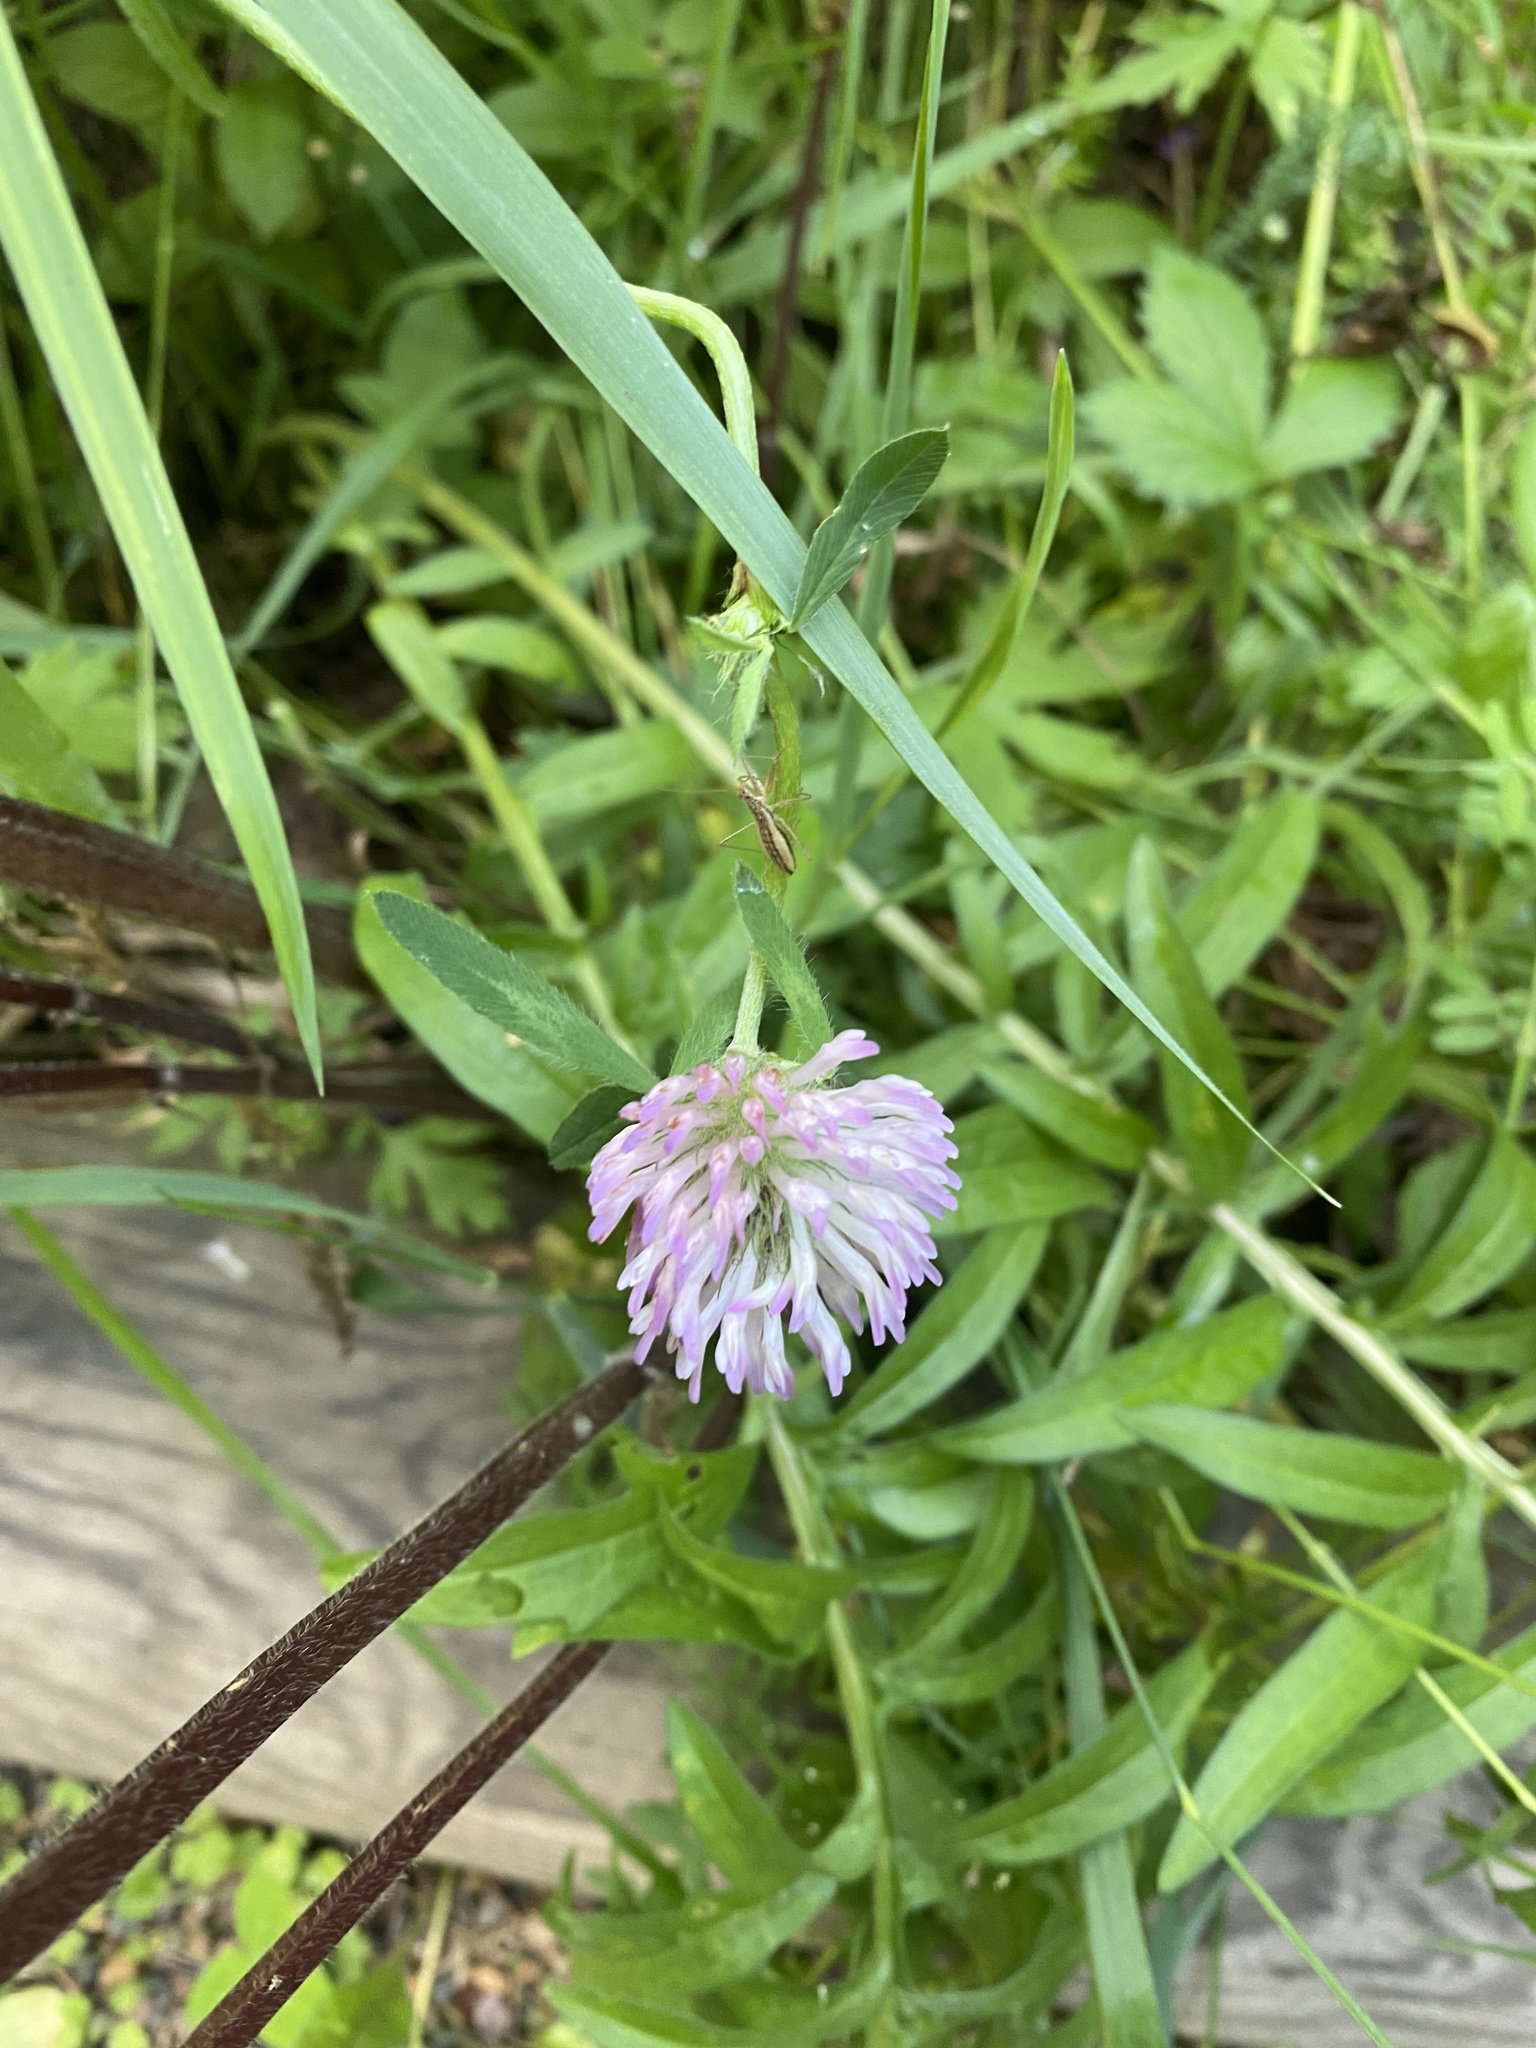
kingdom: Plantae
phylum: Tracheophyta
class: Magnoliopsida
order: Fabales
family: Fabaceae
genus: Trifolium
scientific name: Trifolium pratense
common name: Red clover
